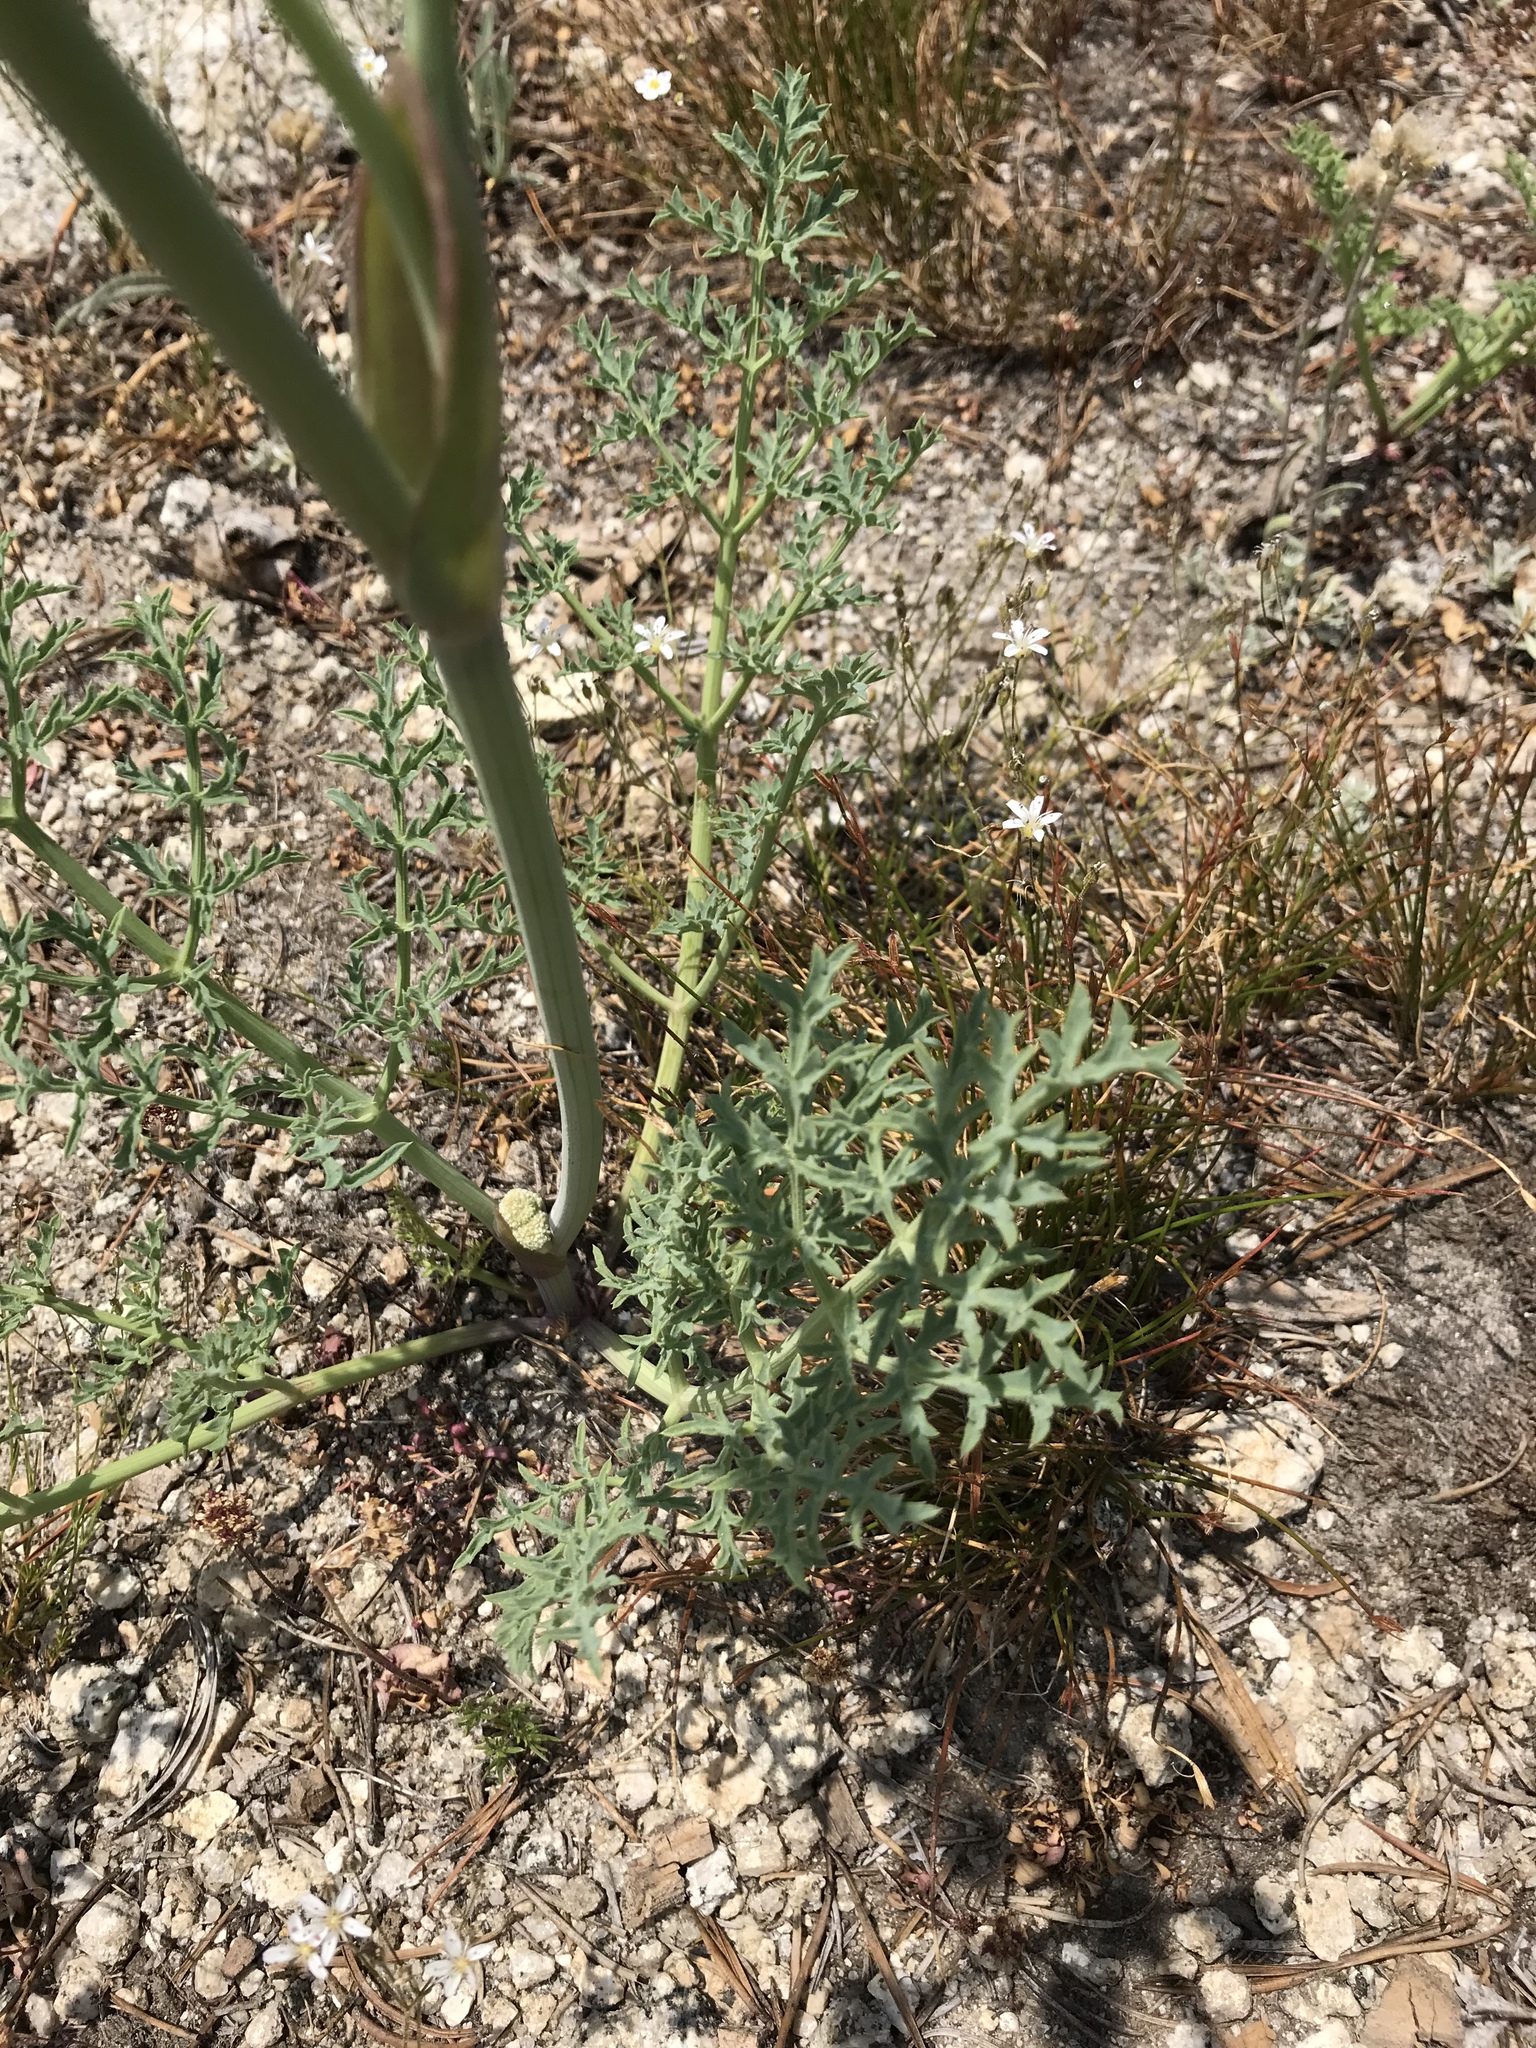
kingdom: Plantae
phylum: Tracheophyta
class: Magnoliopsida
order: Apiales
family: Apiaceae
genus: Angelica
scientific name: Angelica capitellata
